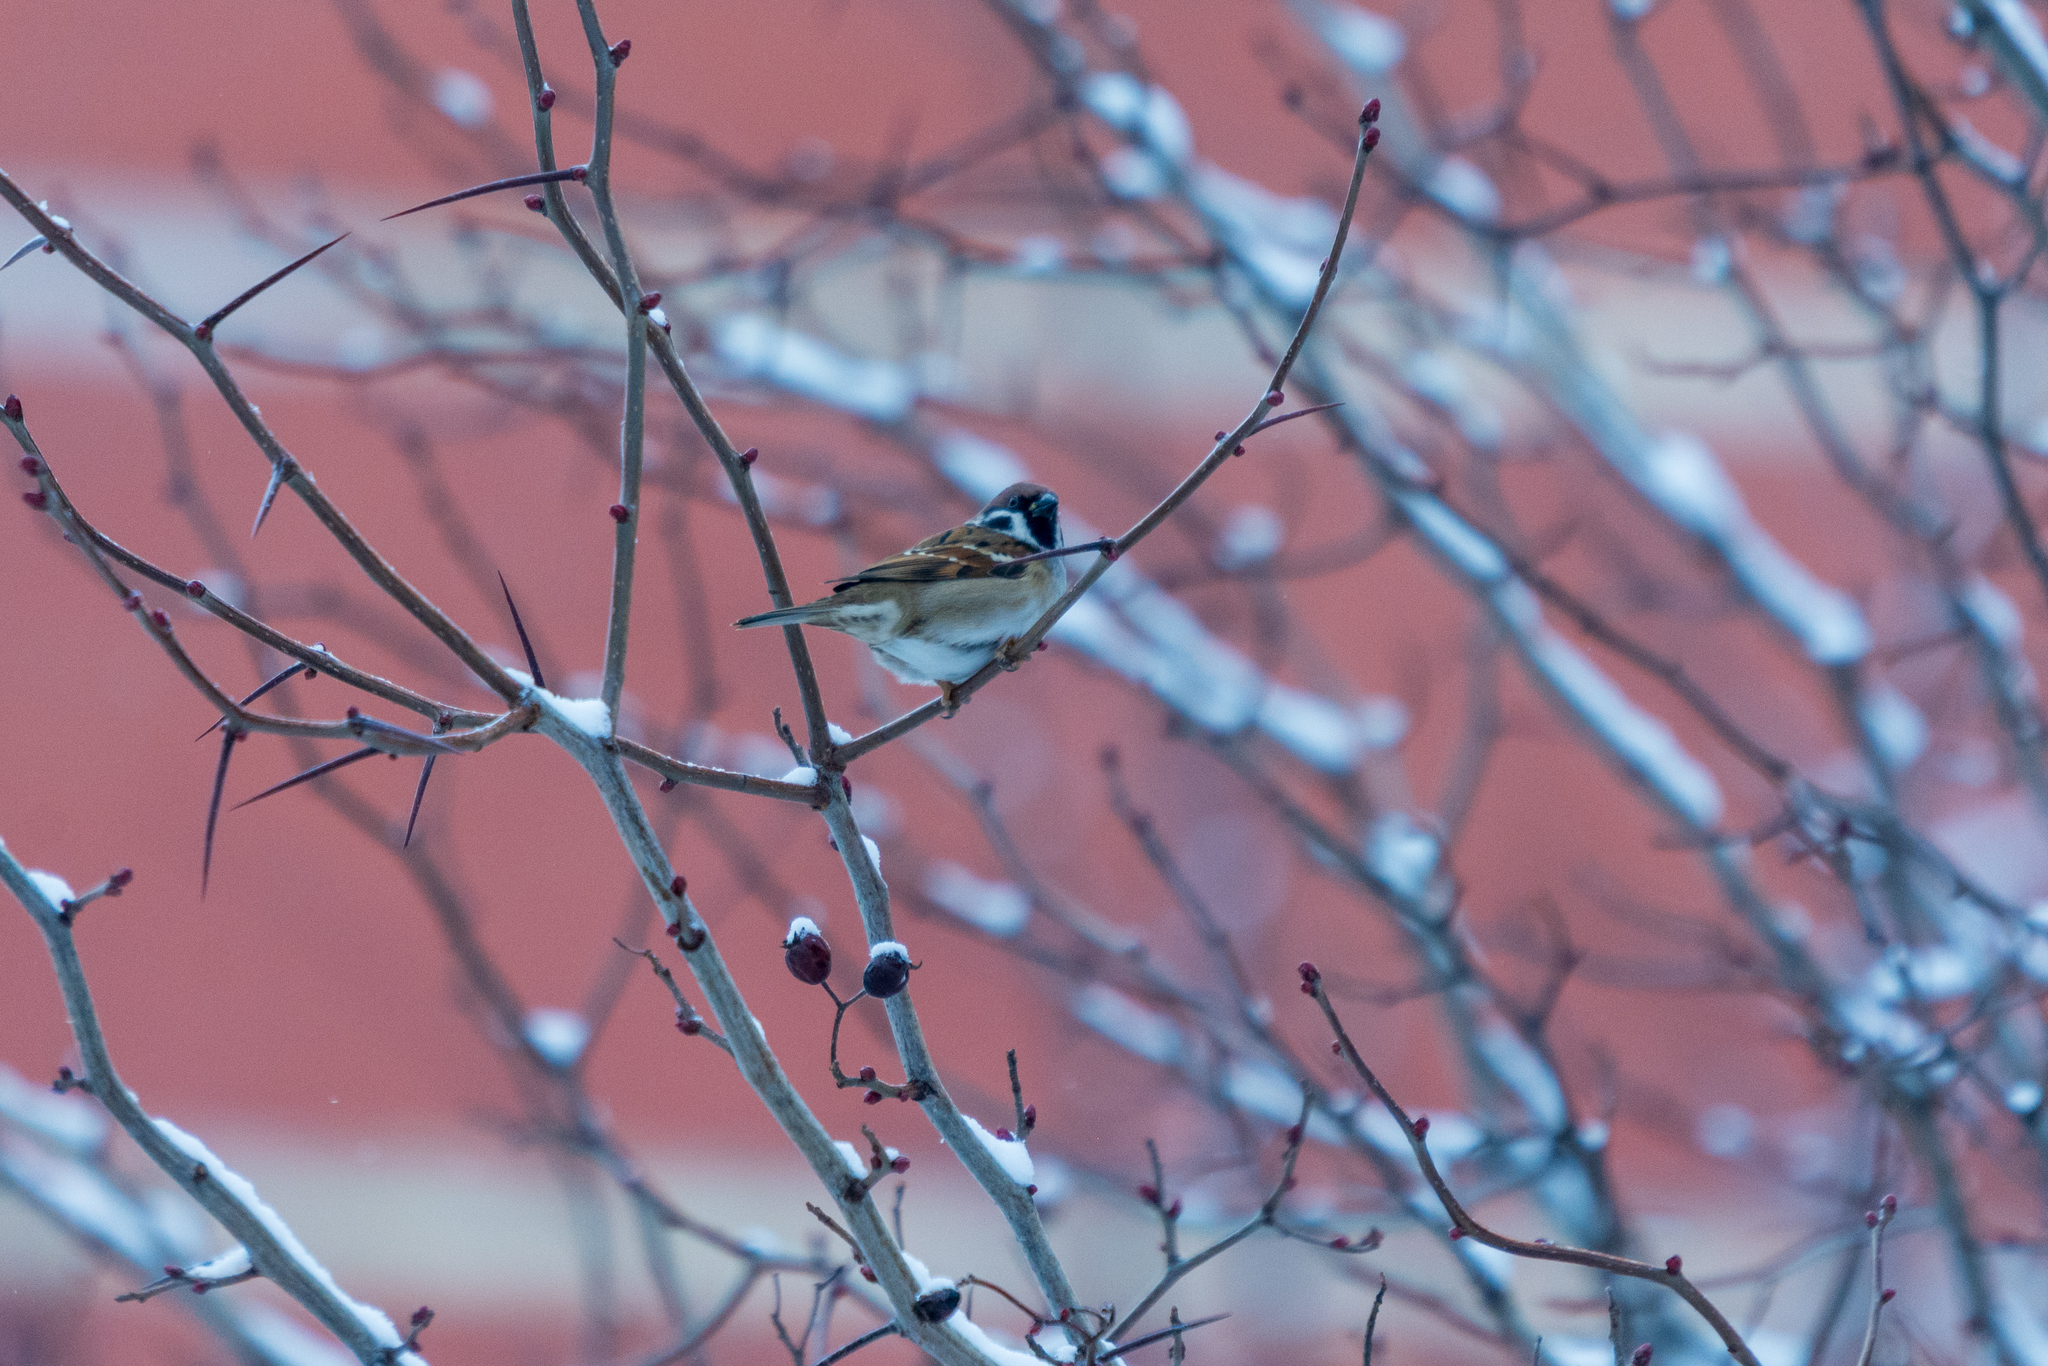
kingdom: Animalia
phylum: Chordata
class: Aves
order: Passeriformes
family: Passeridae
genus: Passer
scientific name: Passer montanus
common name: Eurasian tree sparrow
